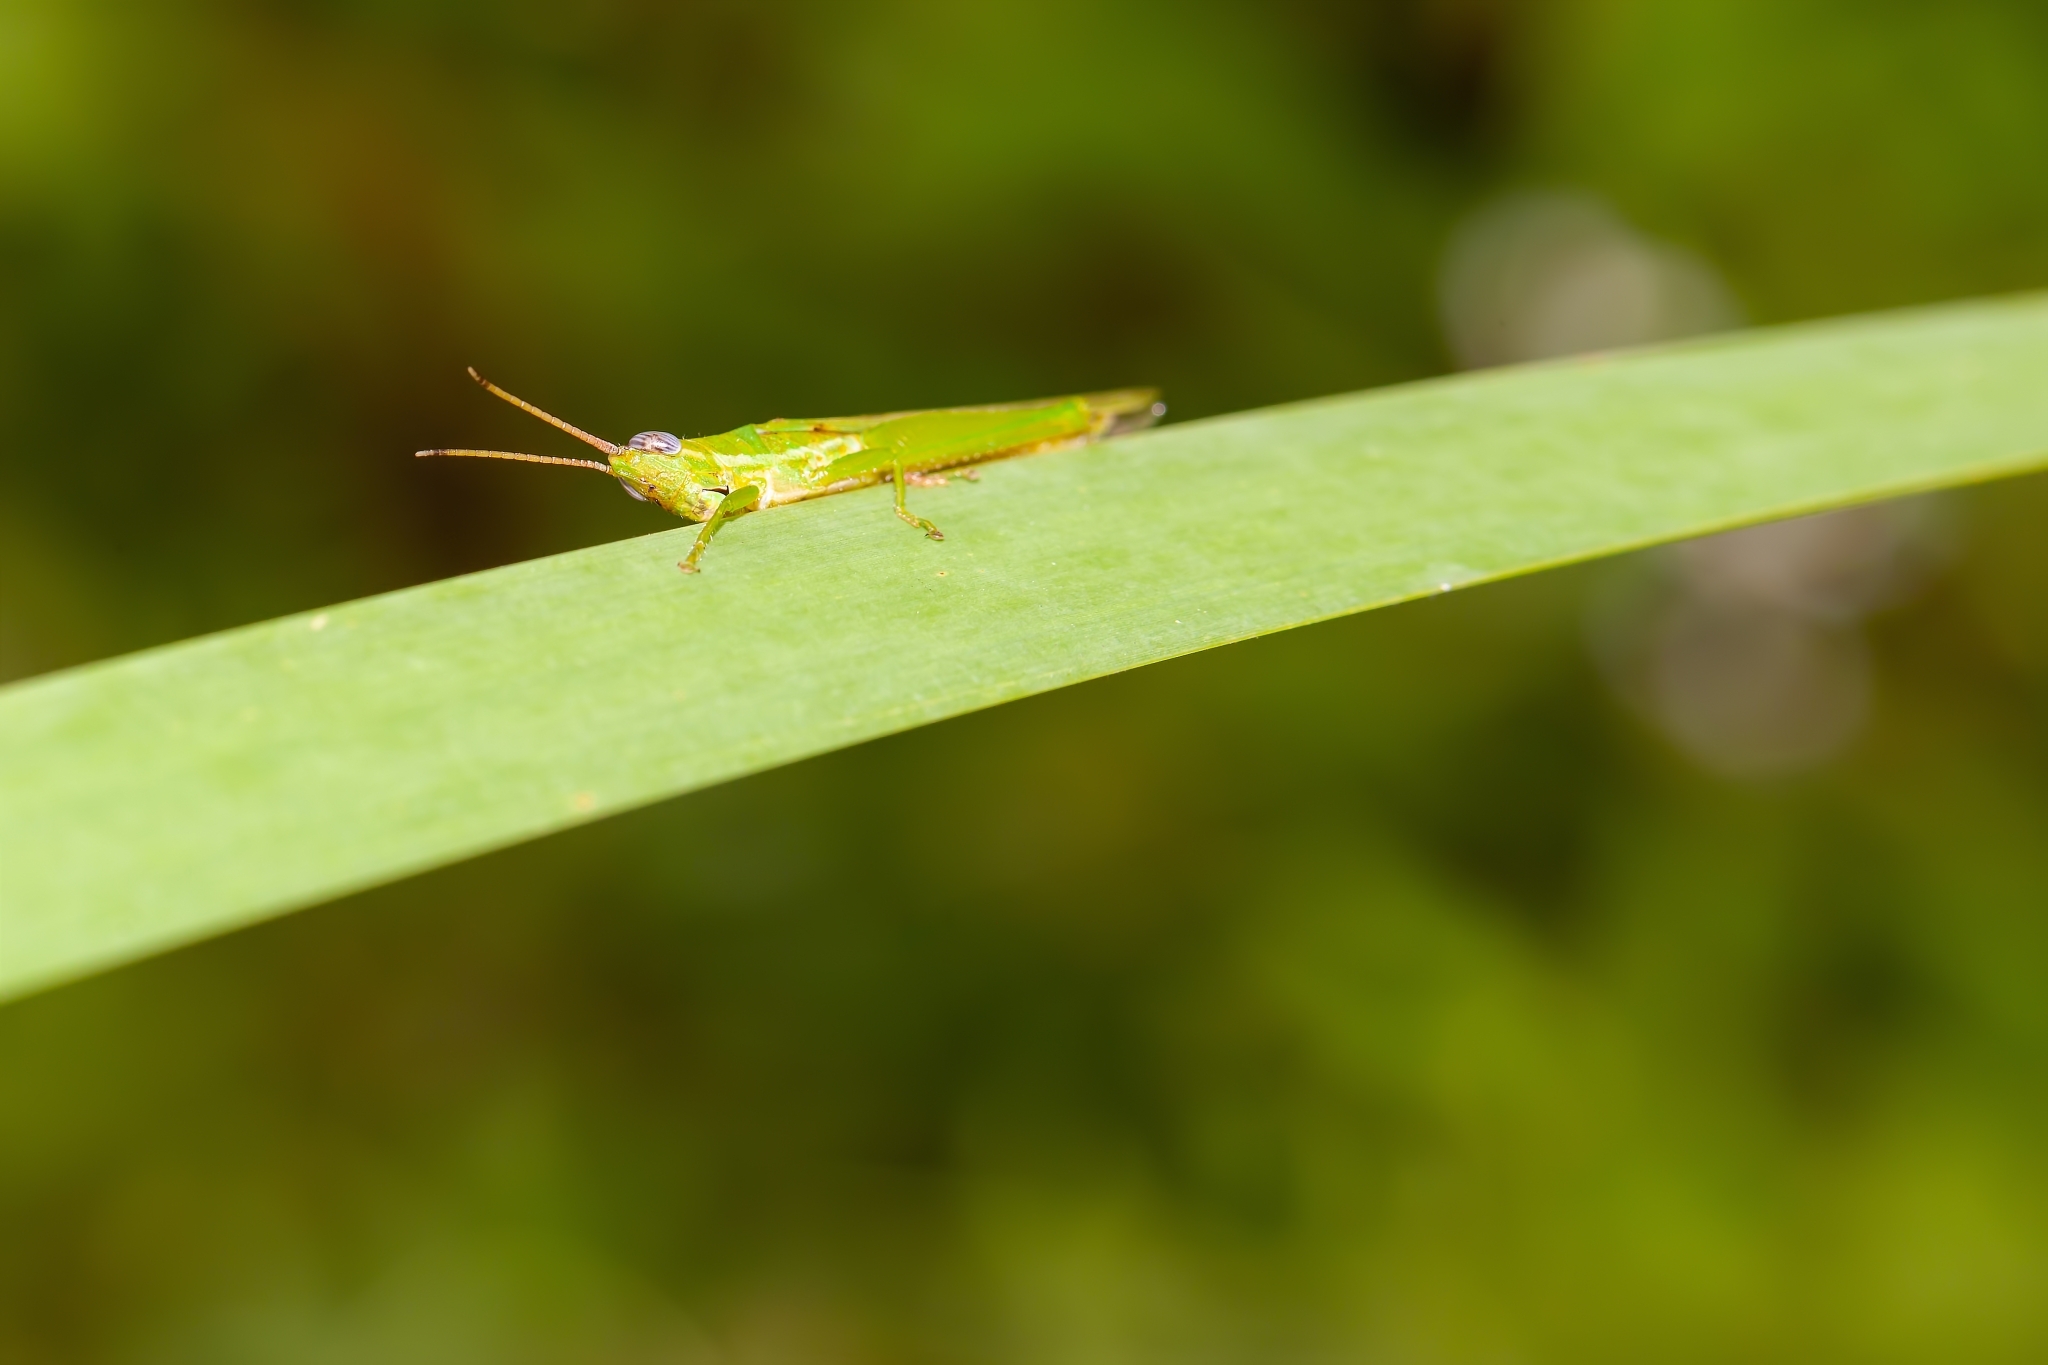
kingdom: Animalia
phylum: Arthropoda
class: Insecta
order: Orthoptera
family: Acrididae
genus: Stenacris
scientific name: Stenacris vitreipennis
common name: Glassy-winged toothpick grasshopper
